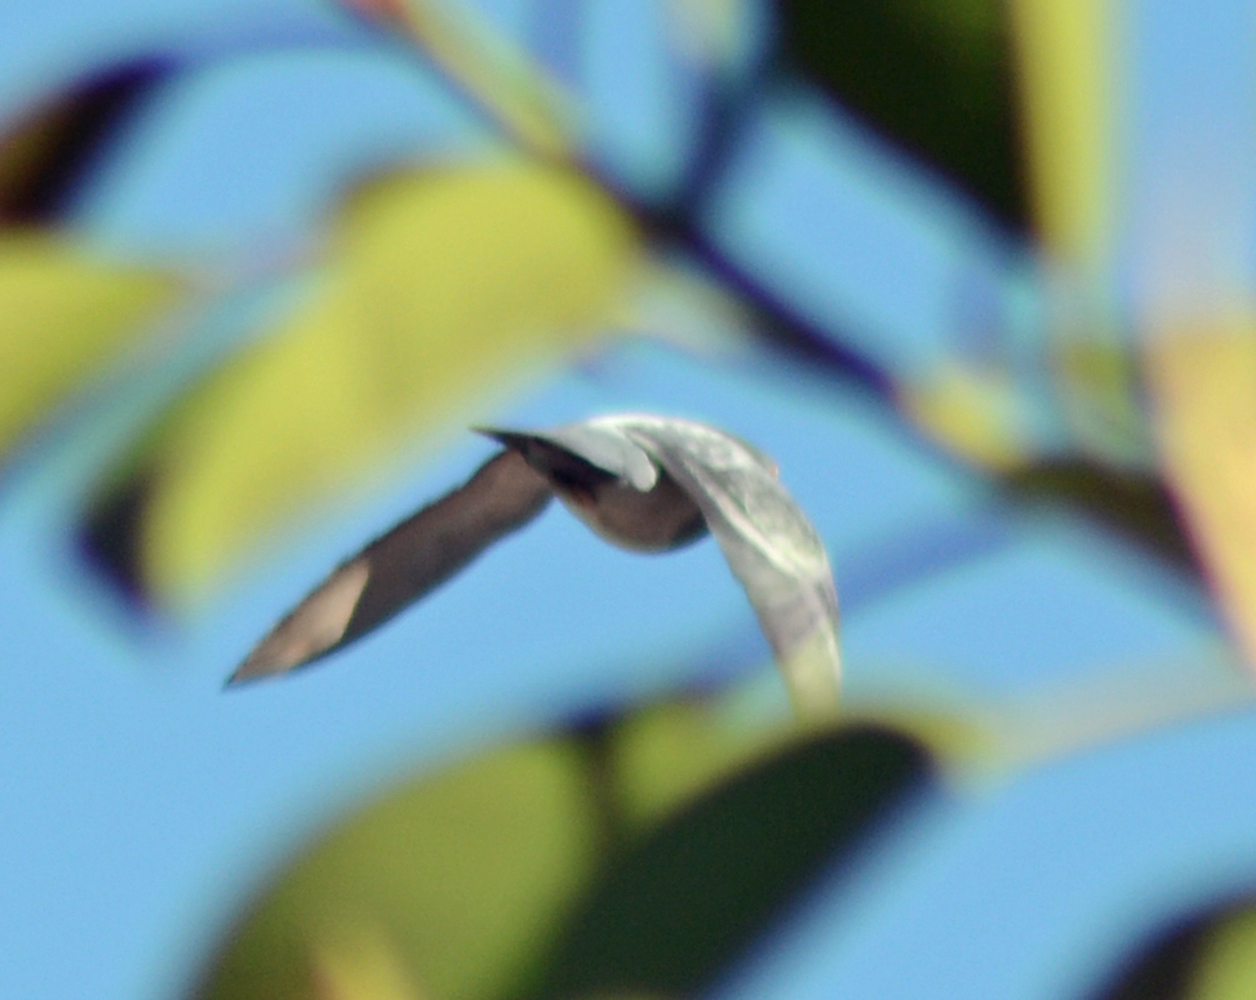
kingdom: Animalia
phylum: Chordata
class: Aves
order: Columbiformes
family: Columbidae
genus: Columba
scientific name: Columba livia
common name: Rock pigeon
